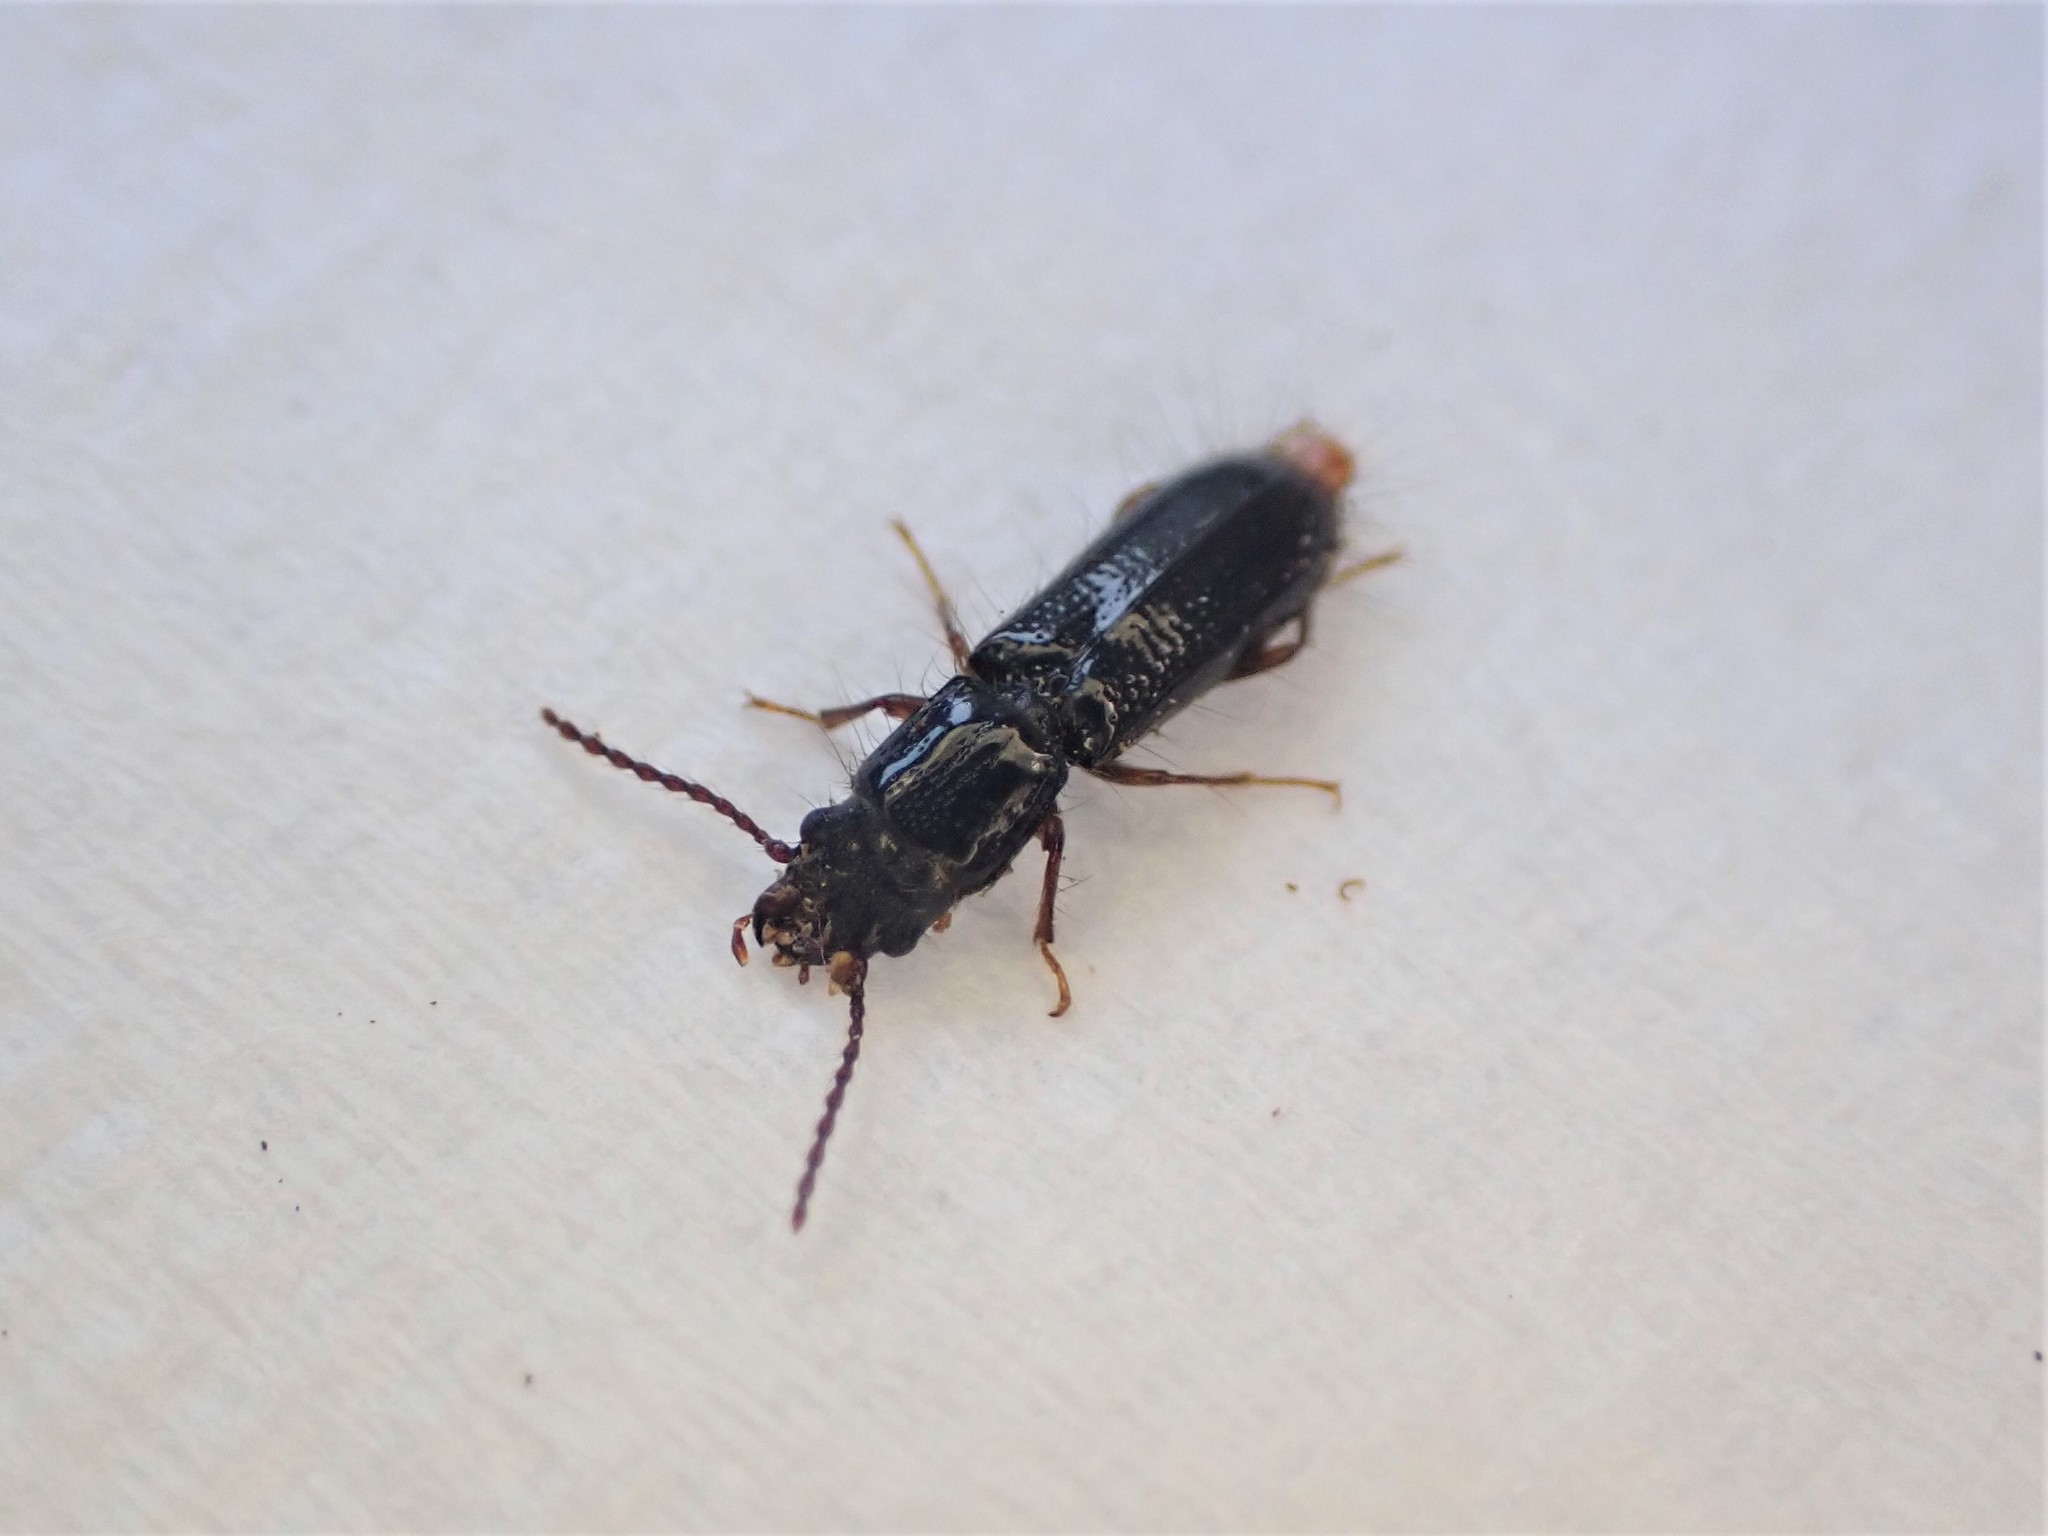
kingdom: Animalia
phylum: Arthropoda
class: Insecta
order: Coleoptera
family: Chaetosomatidae
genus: Chaetosoma
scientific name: Chaetosoma
